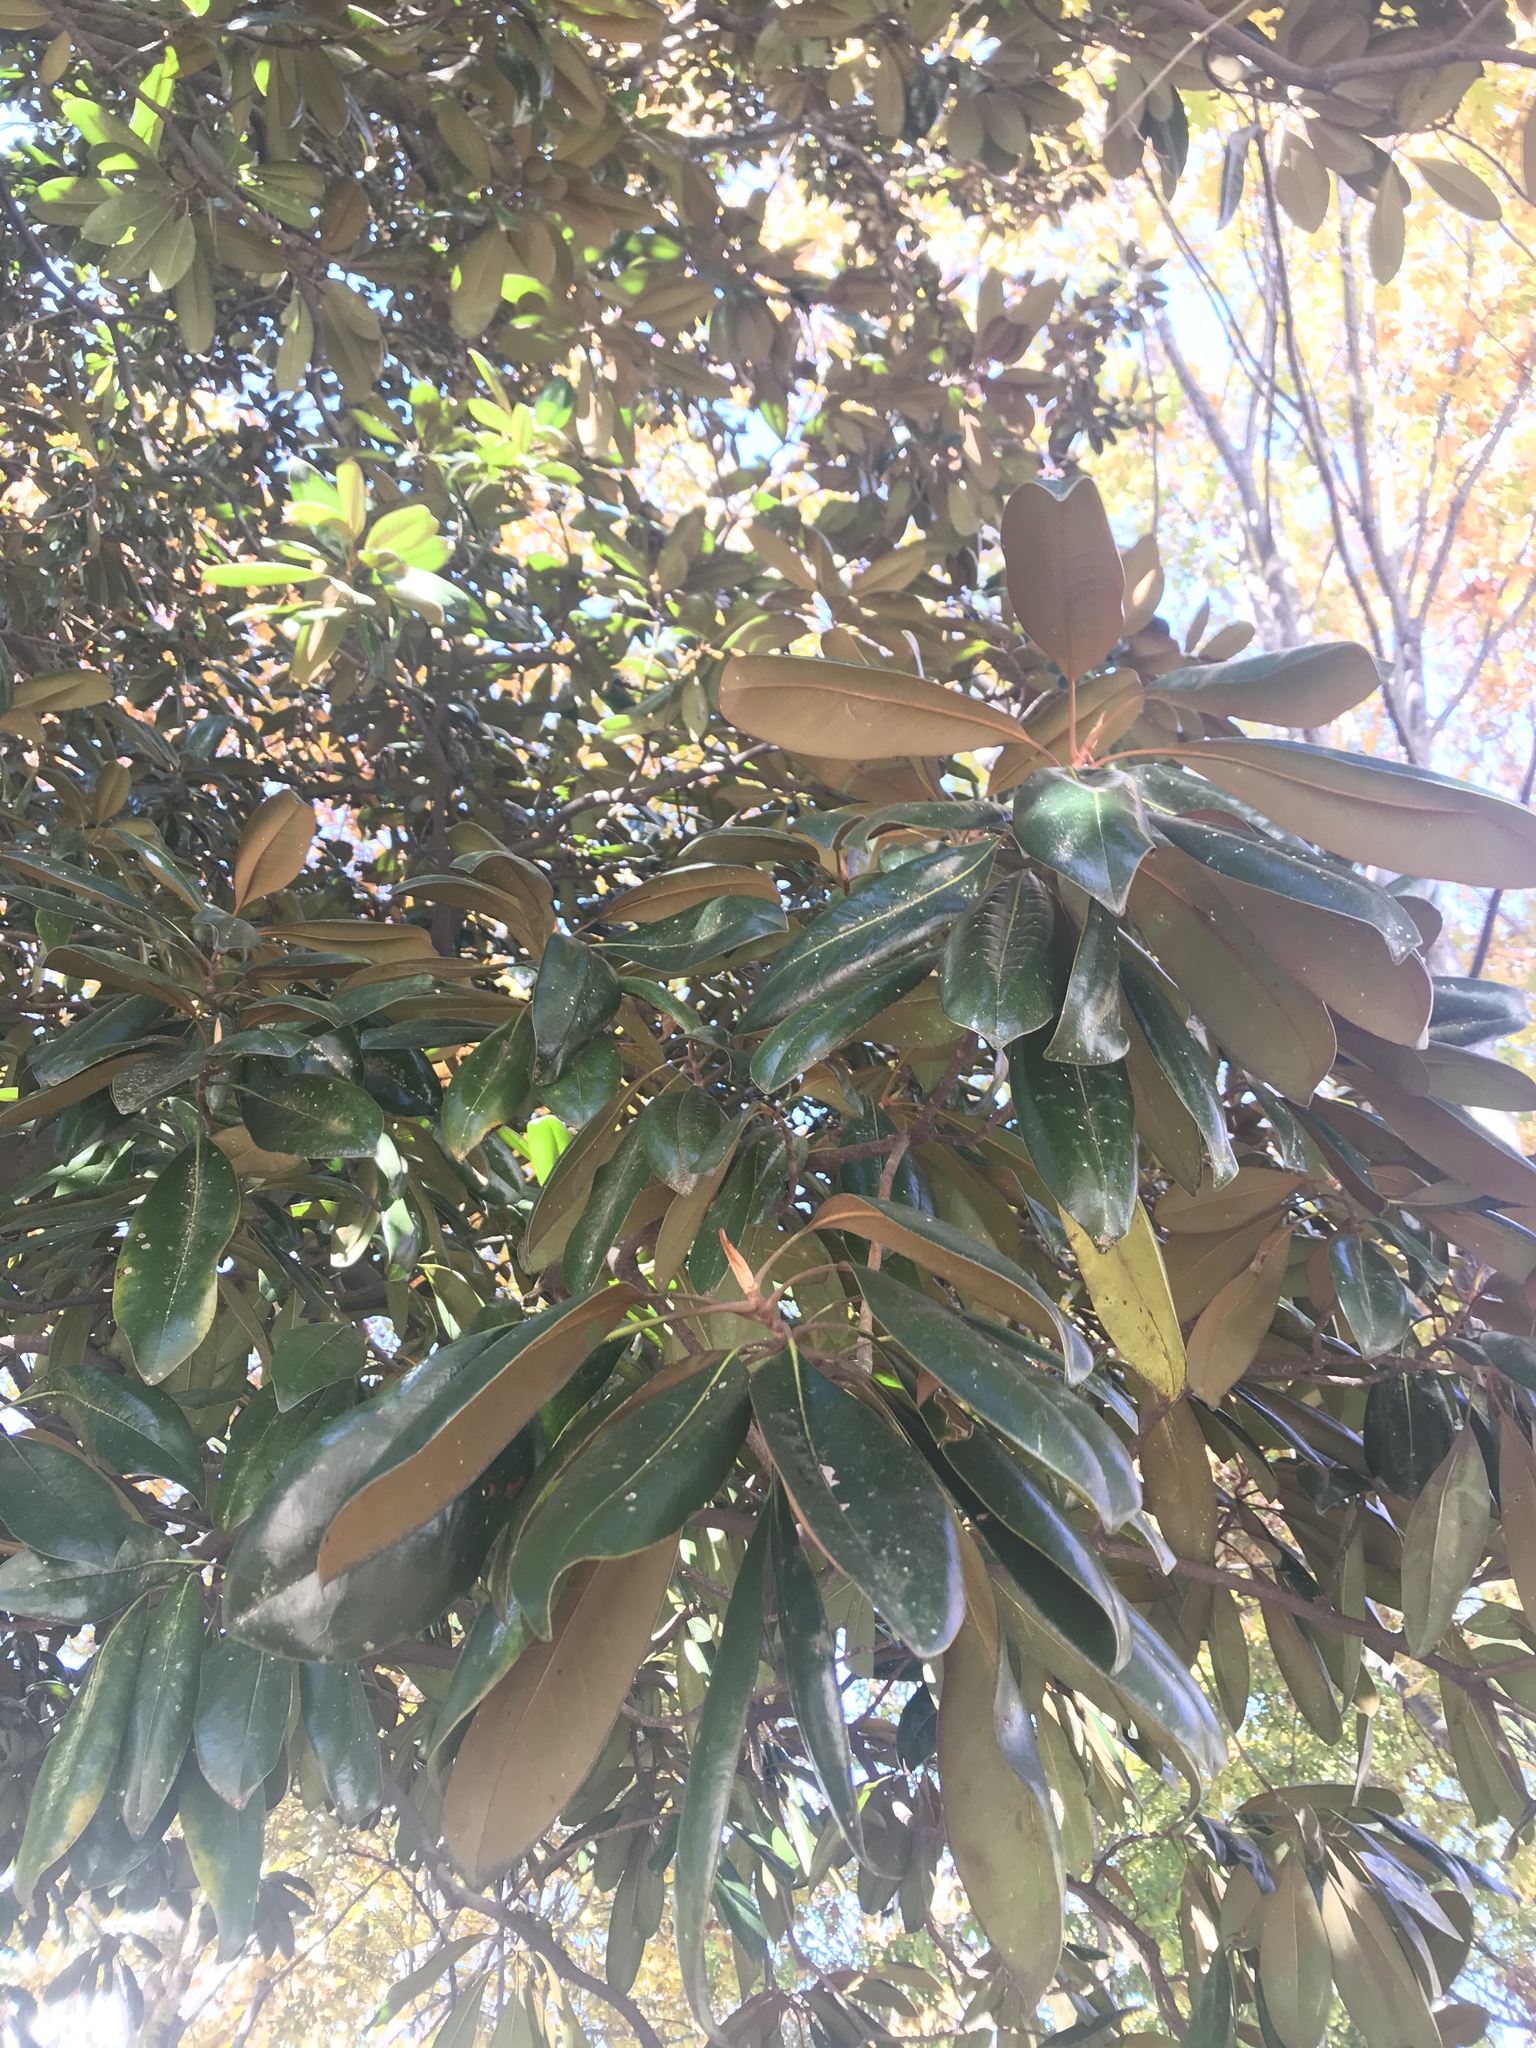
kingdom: Plantae
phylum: Tracheophyta
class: Magnoliopsida
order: Magnoliales
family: Magnoliaceae
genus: Magnolia
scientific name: Magnolia grandiflora
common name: Southern magnolia
